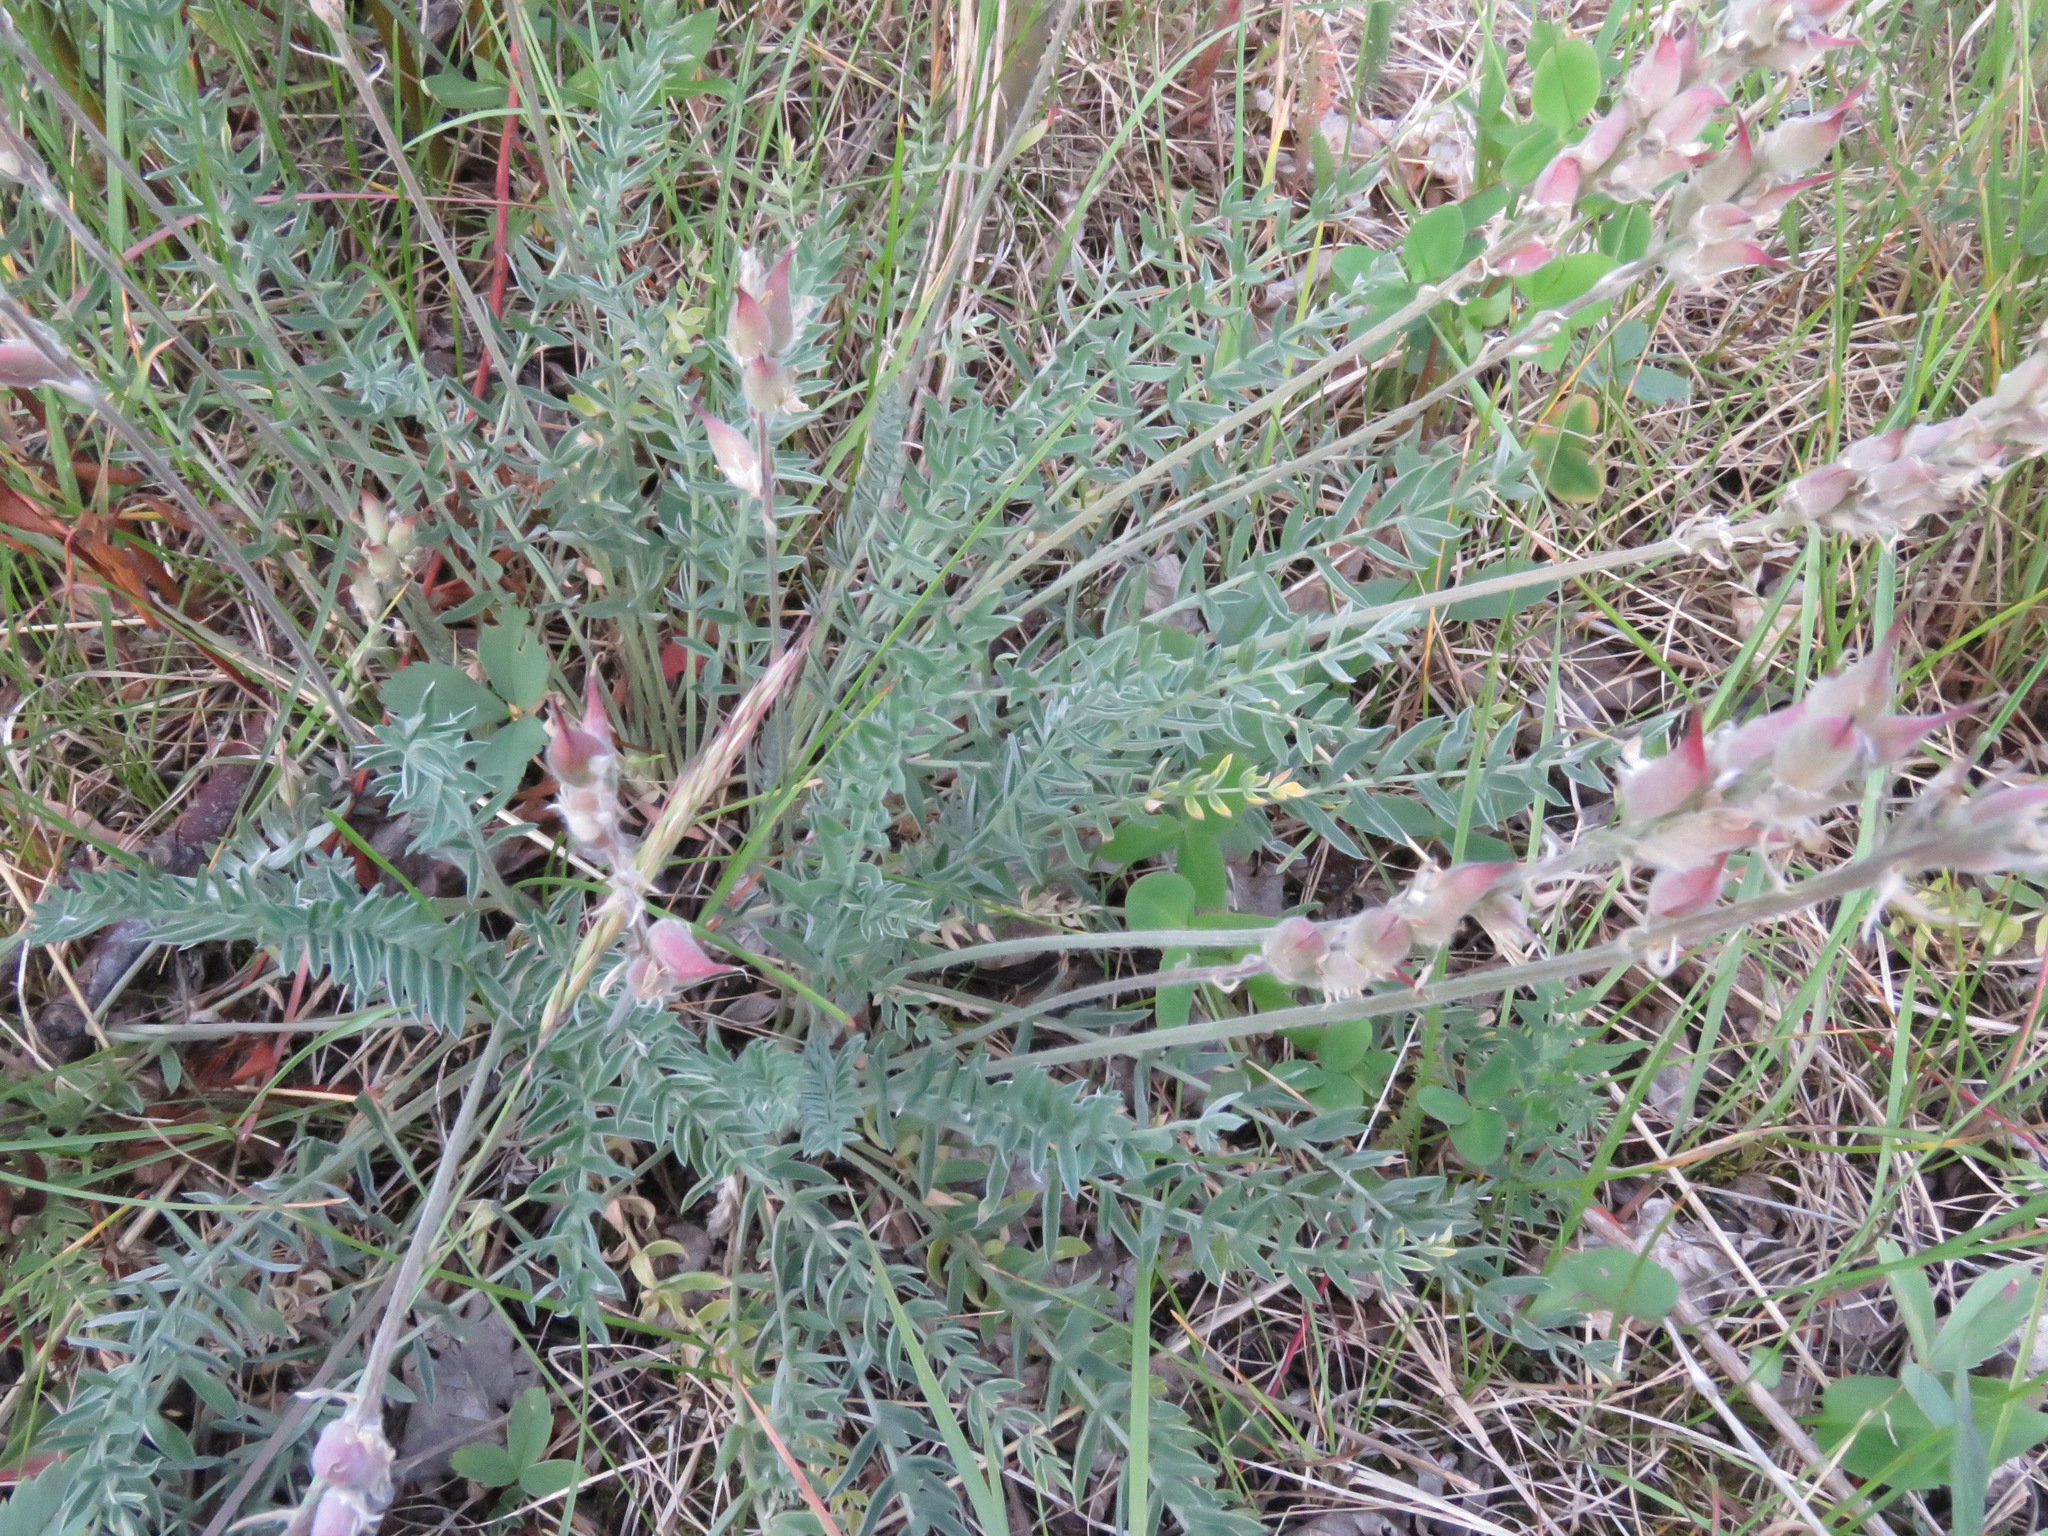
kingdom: Plantae
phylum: Tracheophyta
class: Magnoliopsida
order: Fabales
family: Fabaceae
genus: Oxytropis
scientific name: Oxytropis splendens
